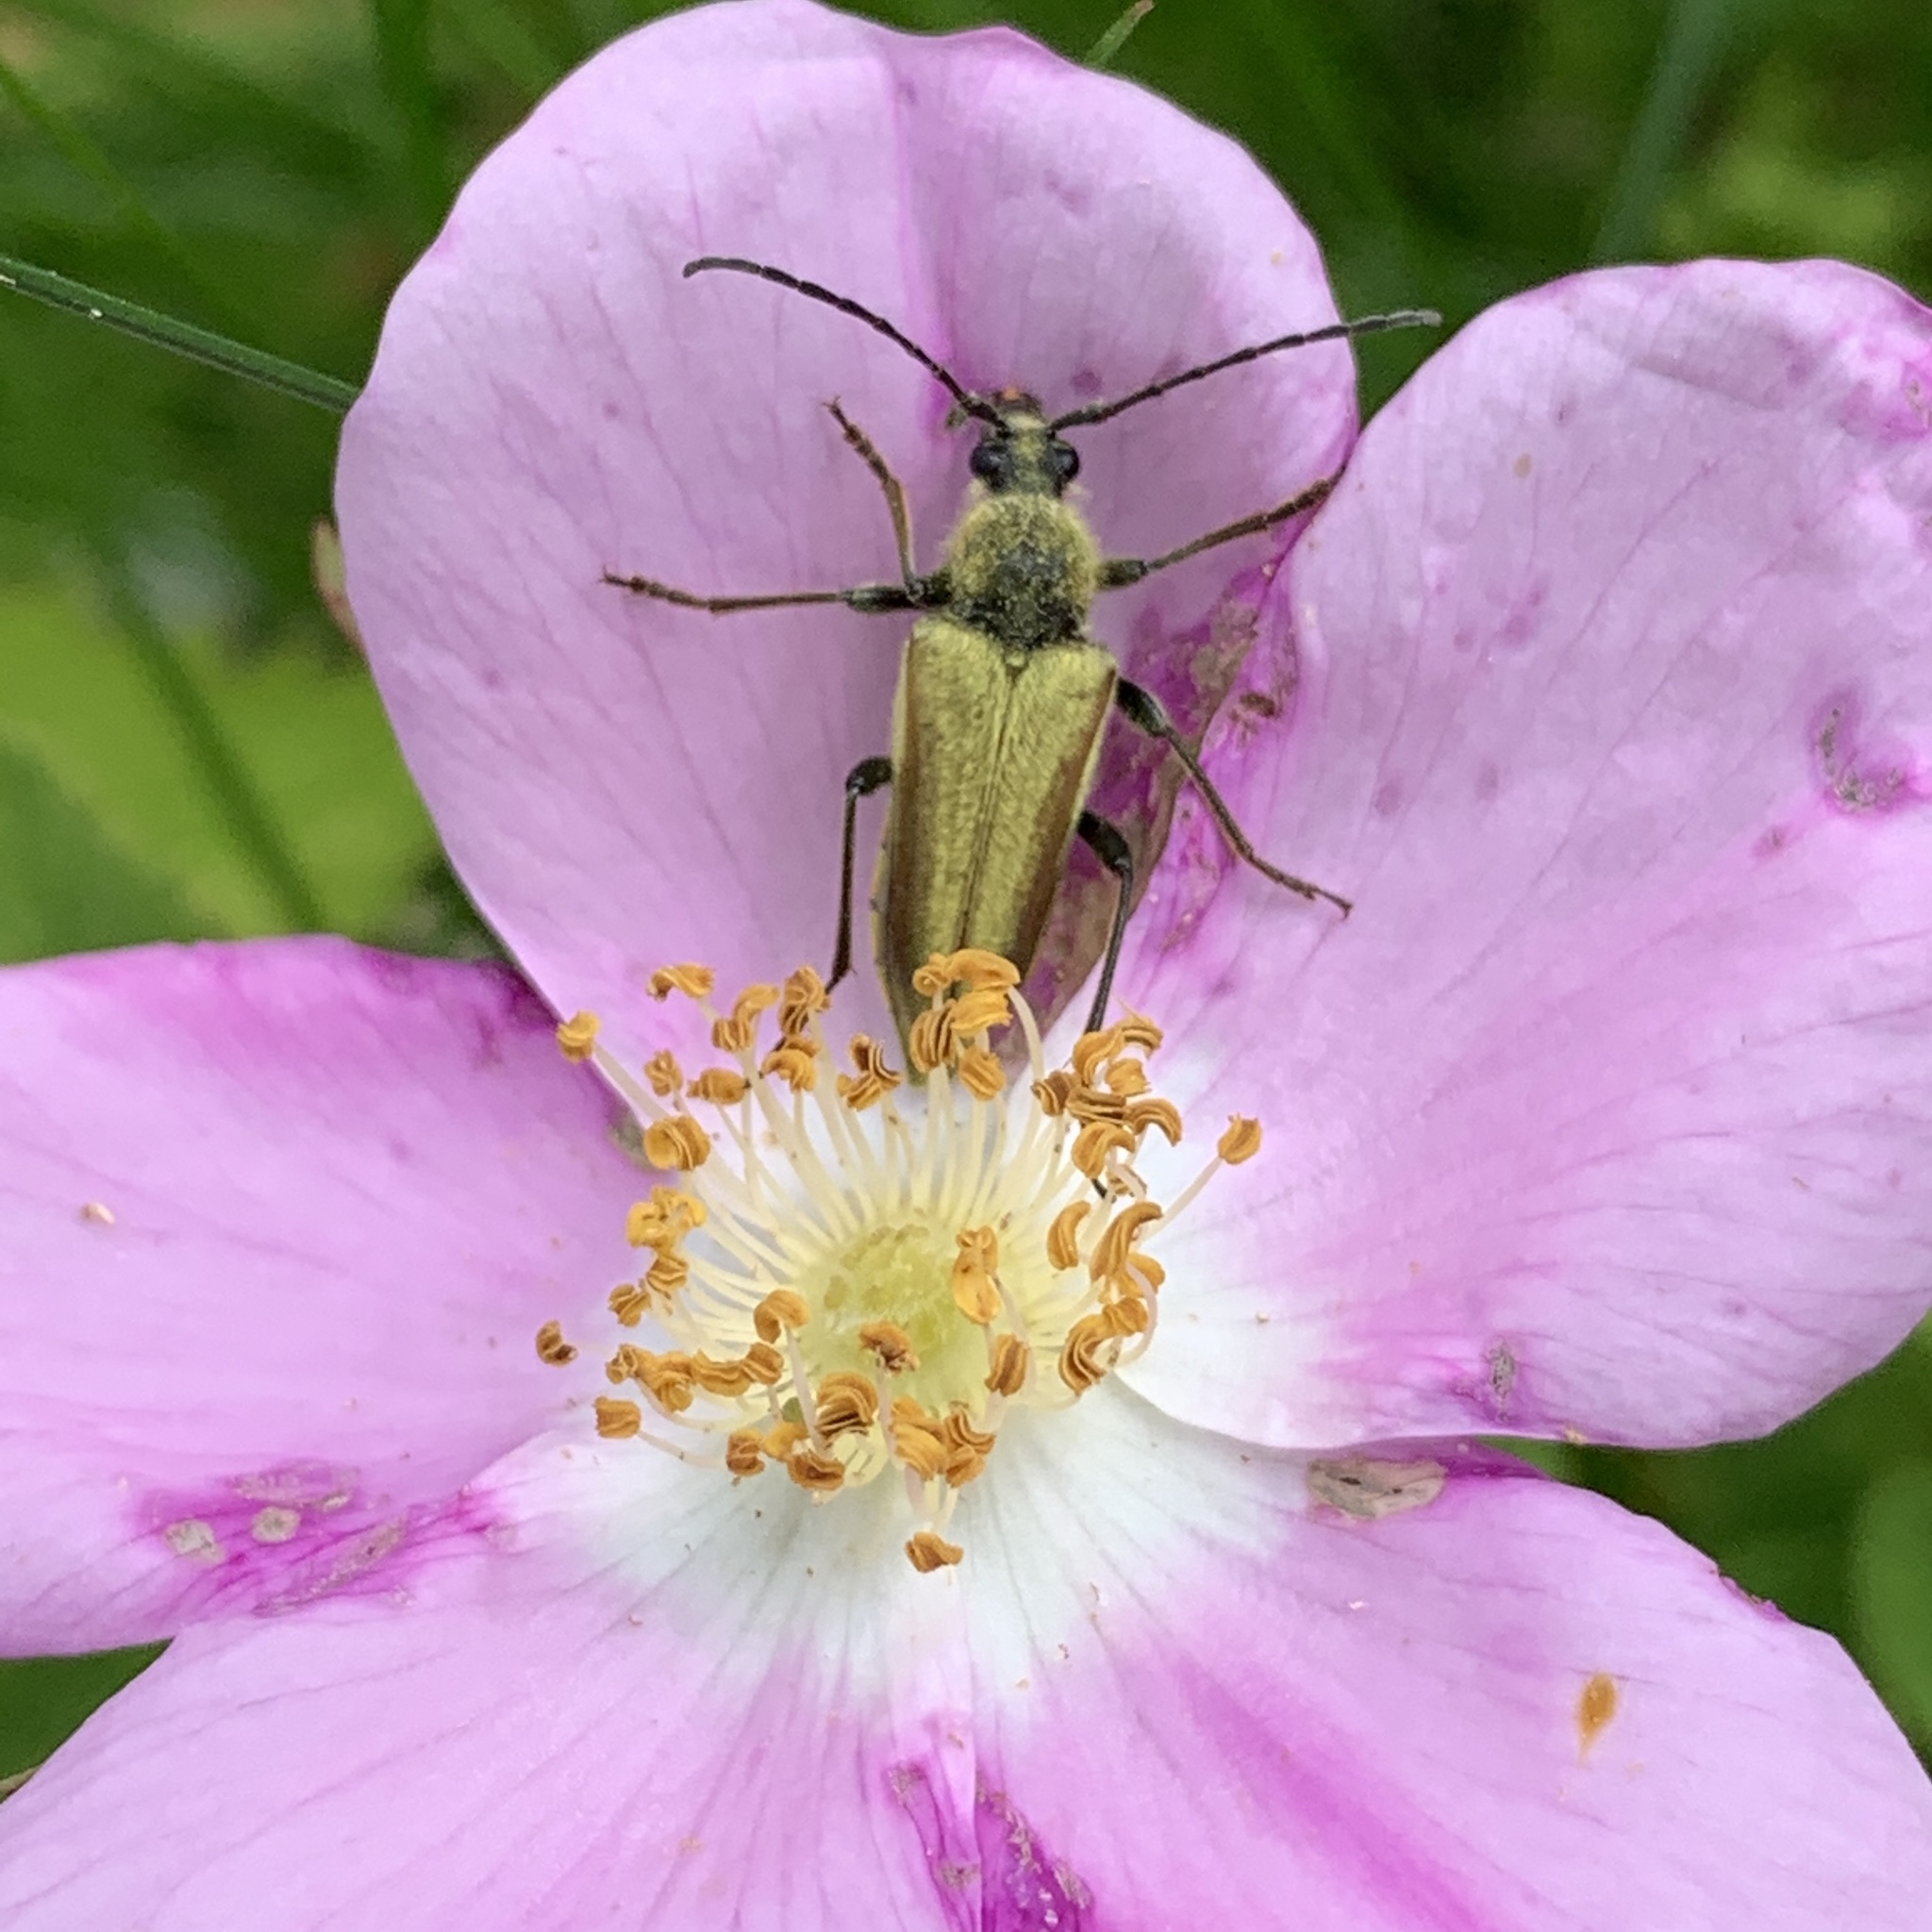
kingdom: Animalia
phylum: Arthropoda
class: Insecta
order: Coleoptera
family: Cerambycidae
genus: Cosmosalia
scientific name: Cosmosalia chrysocoma
